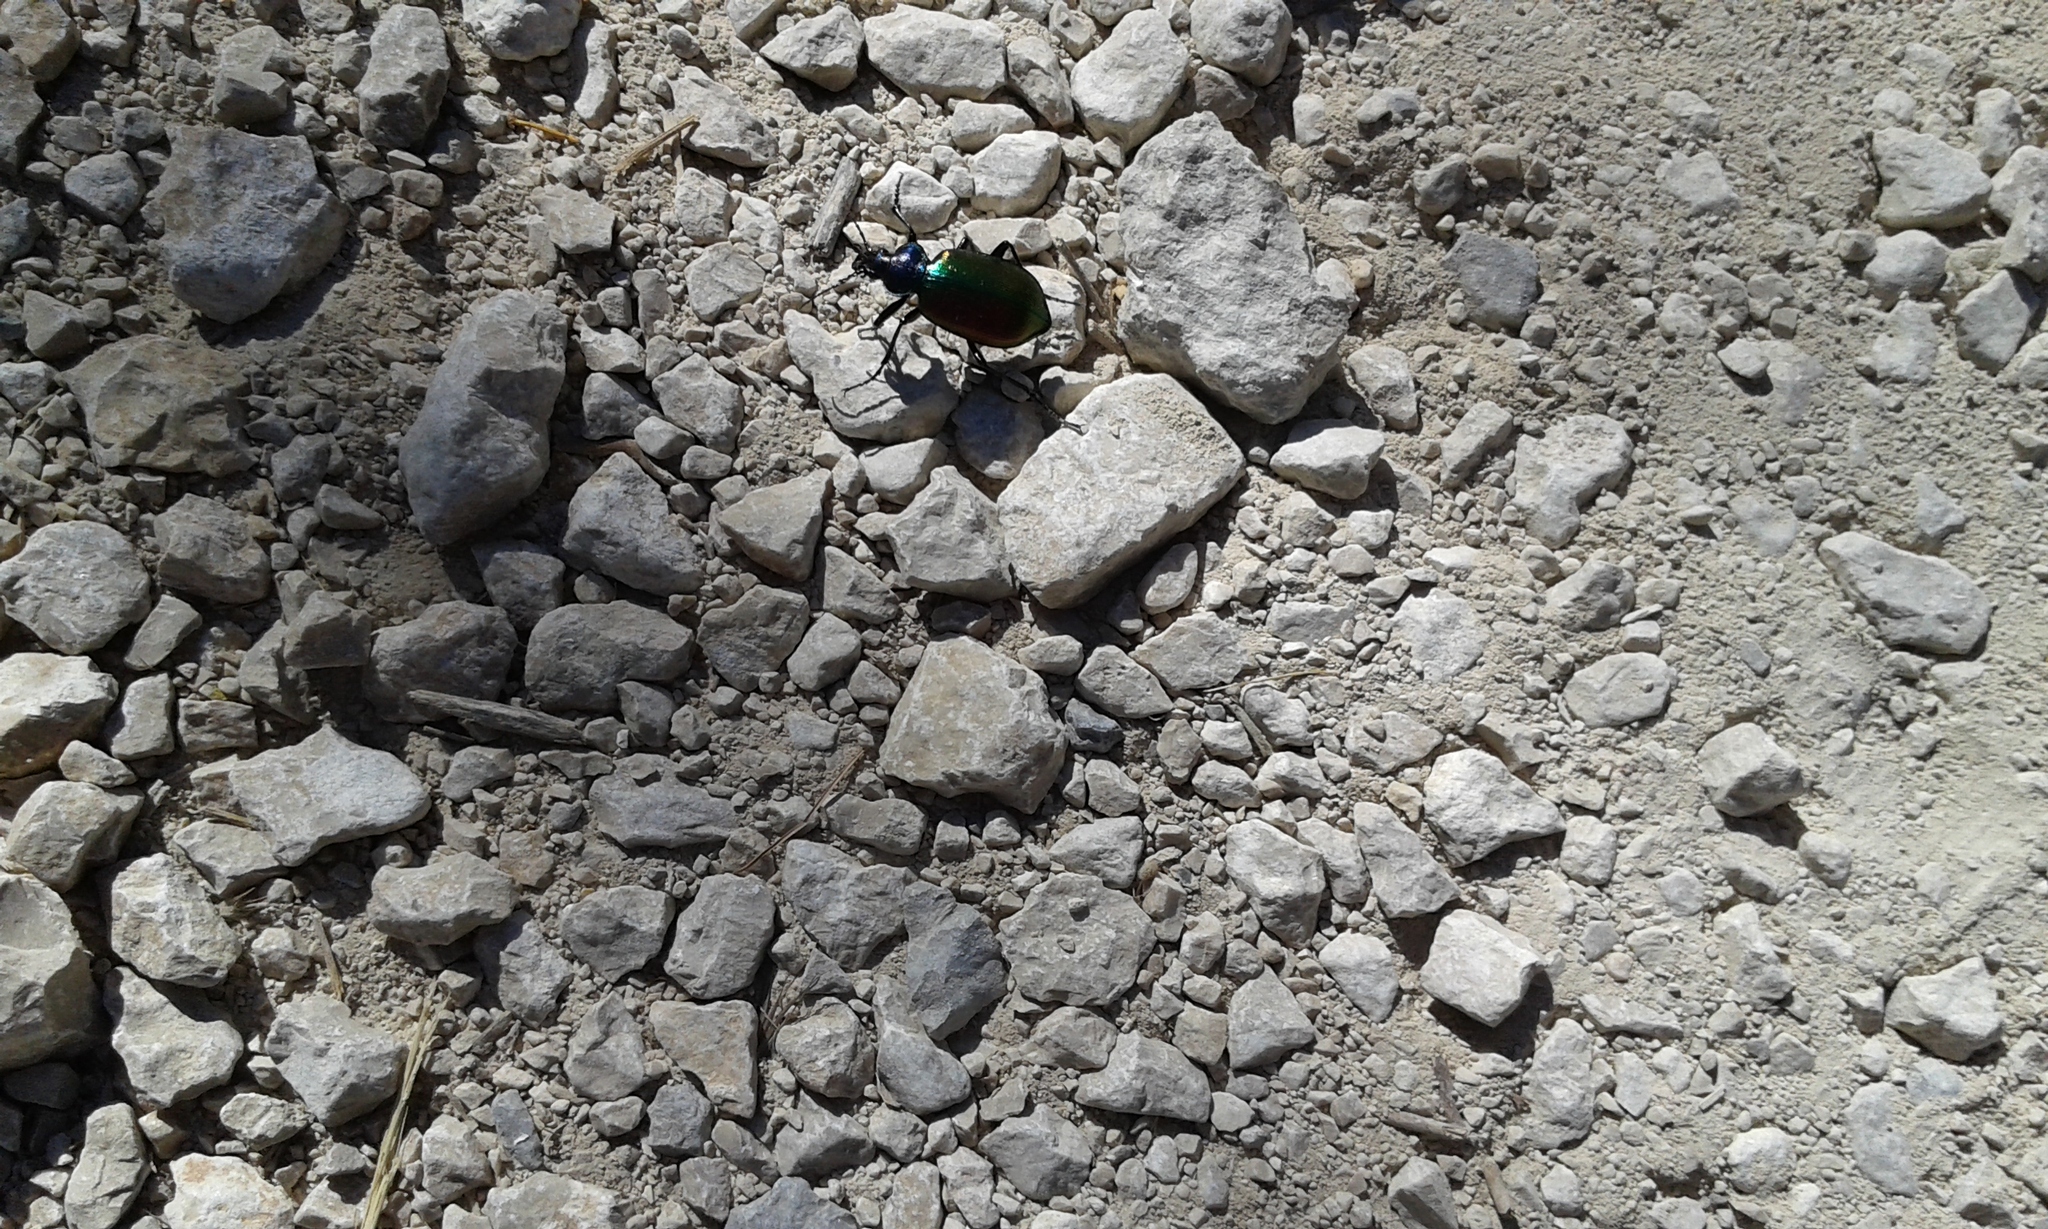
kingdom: Animalia
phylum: Arthropoda
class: Insecta
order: Coleoptera
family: Carabidae
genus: Calosoma
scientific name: Calosoma sycophanta
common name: Forest caterpillar hunter
